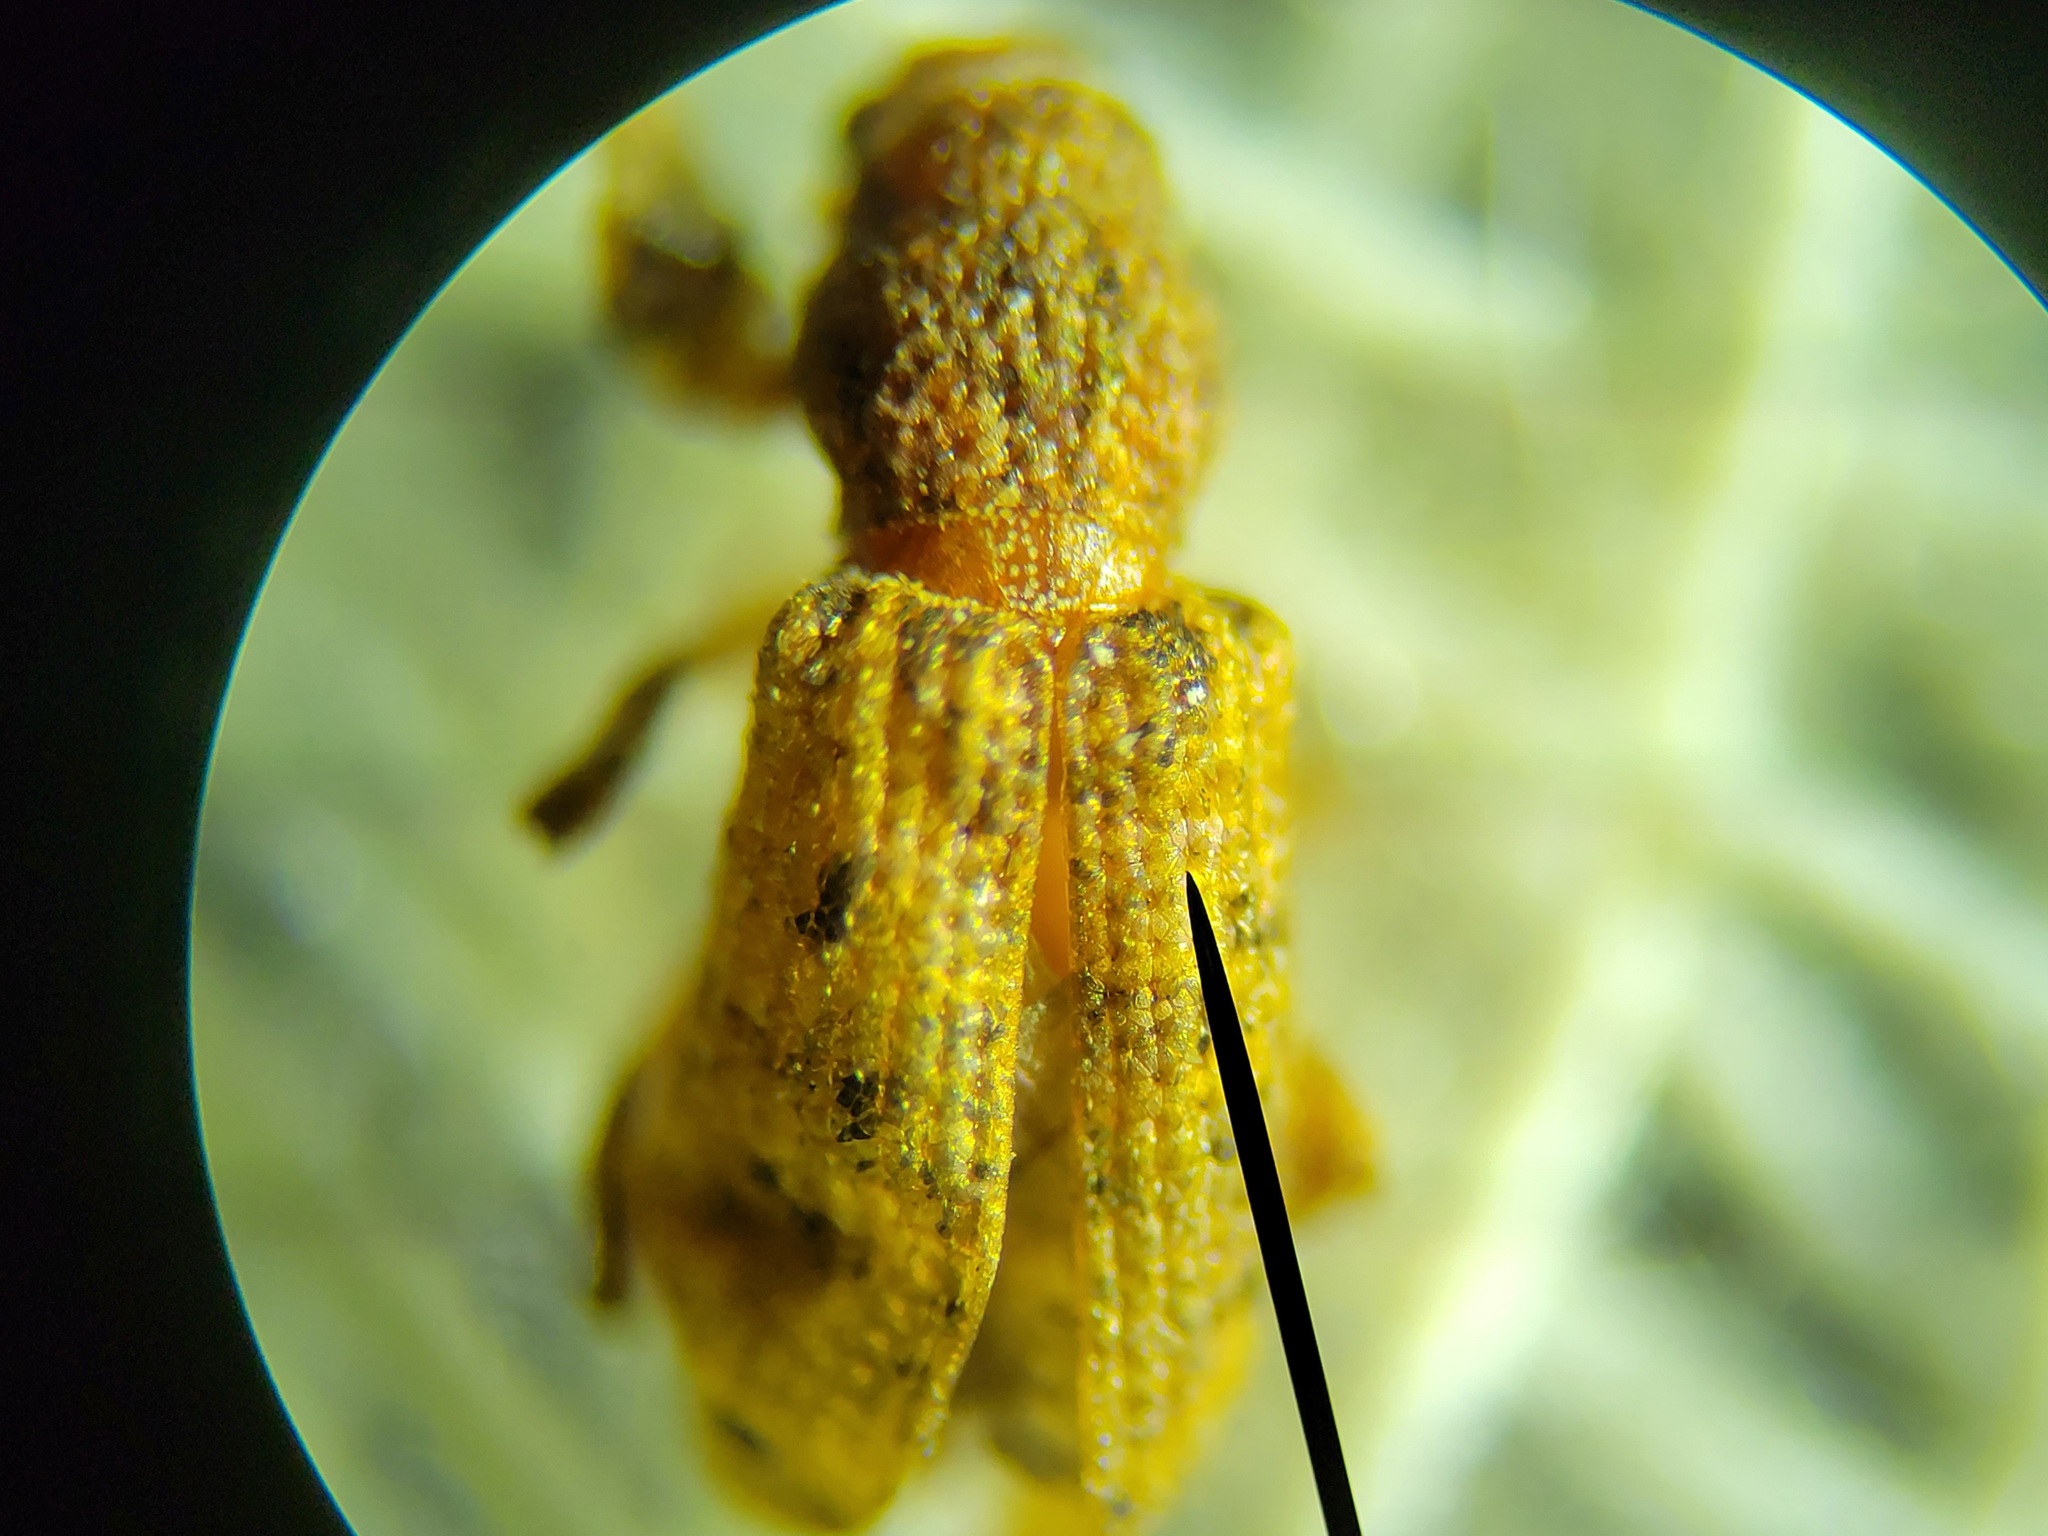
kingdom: Animalia
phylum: Arthropoda
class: Insecta
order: Coleoptera
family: Curculionidae
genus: Pandeleteius
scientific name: Pandeleteius hilaris
